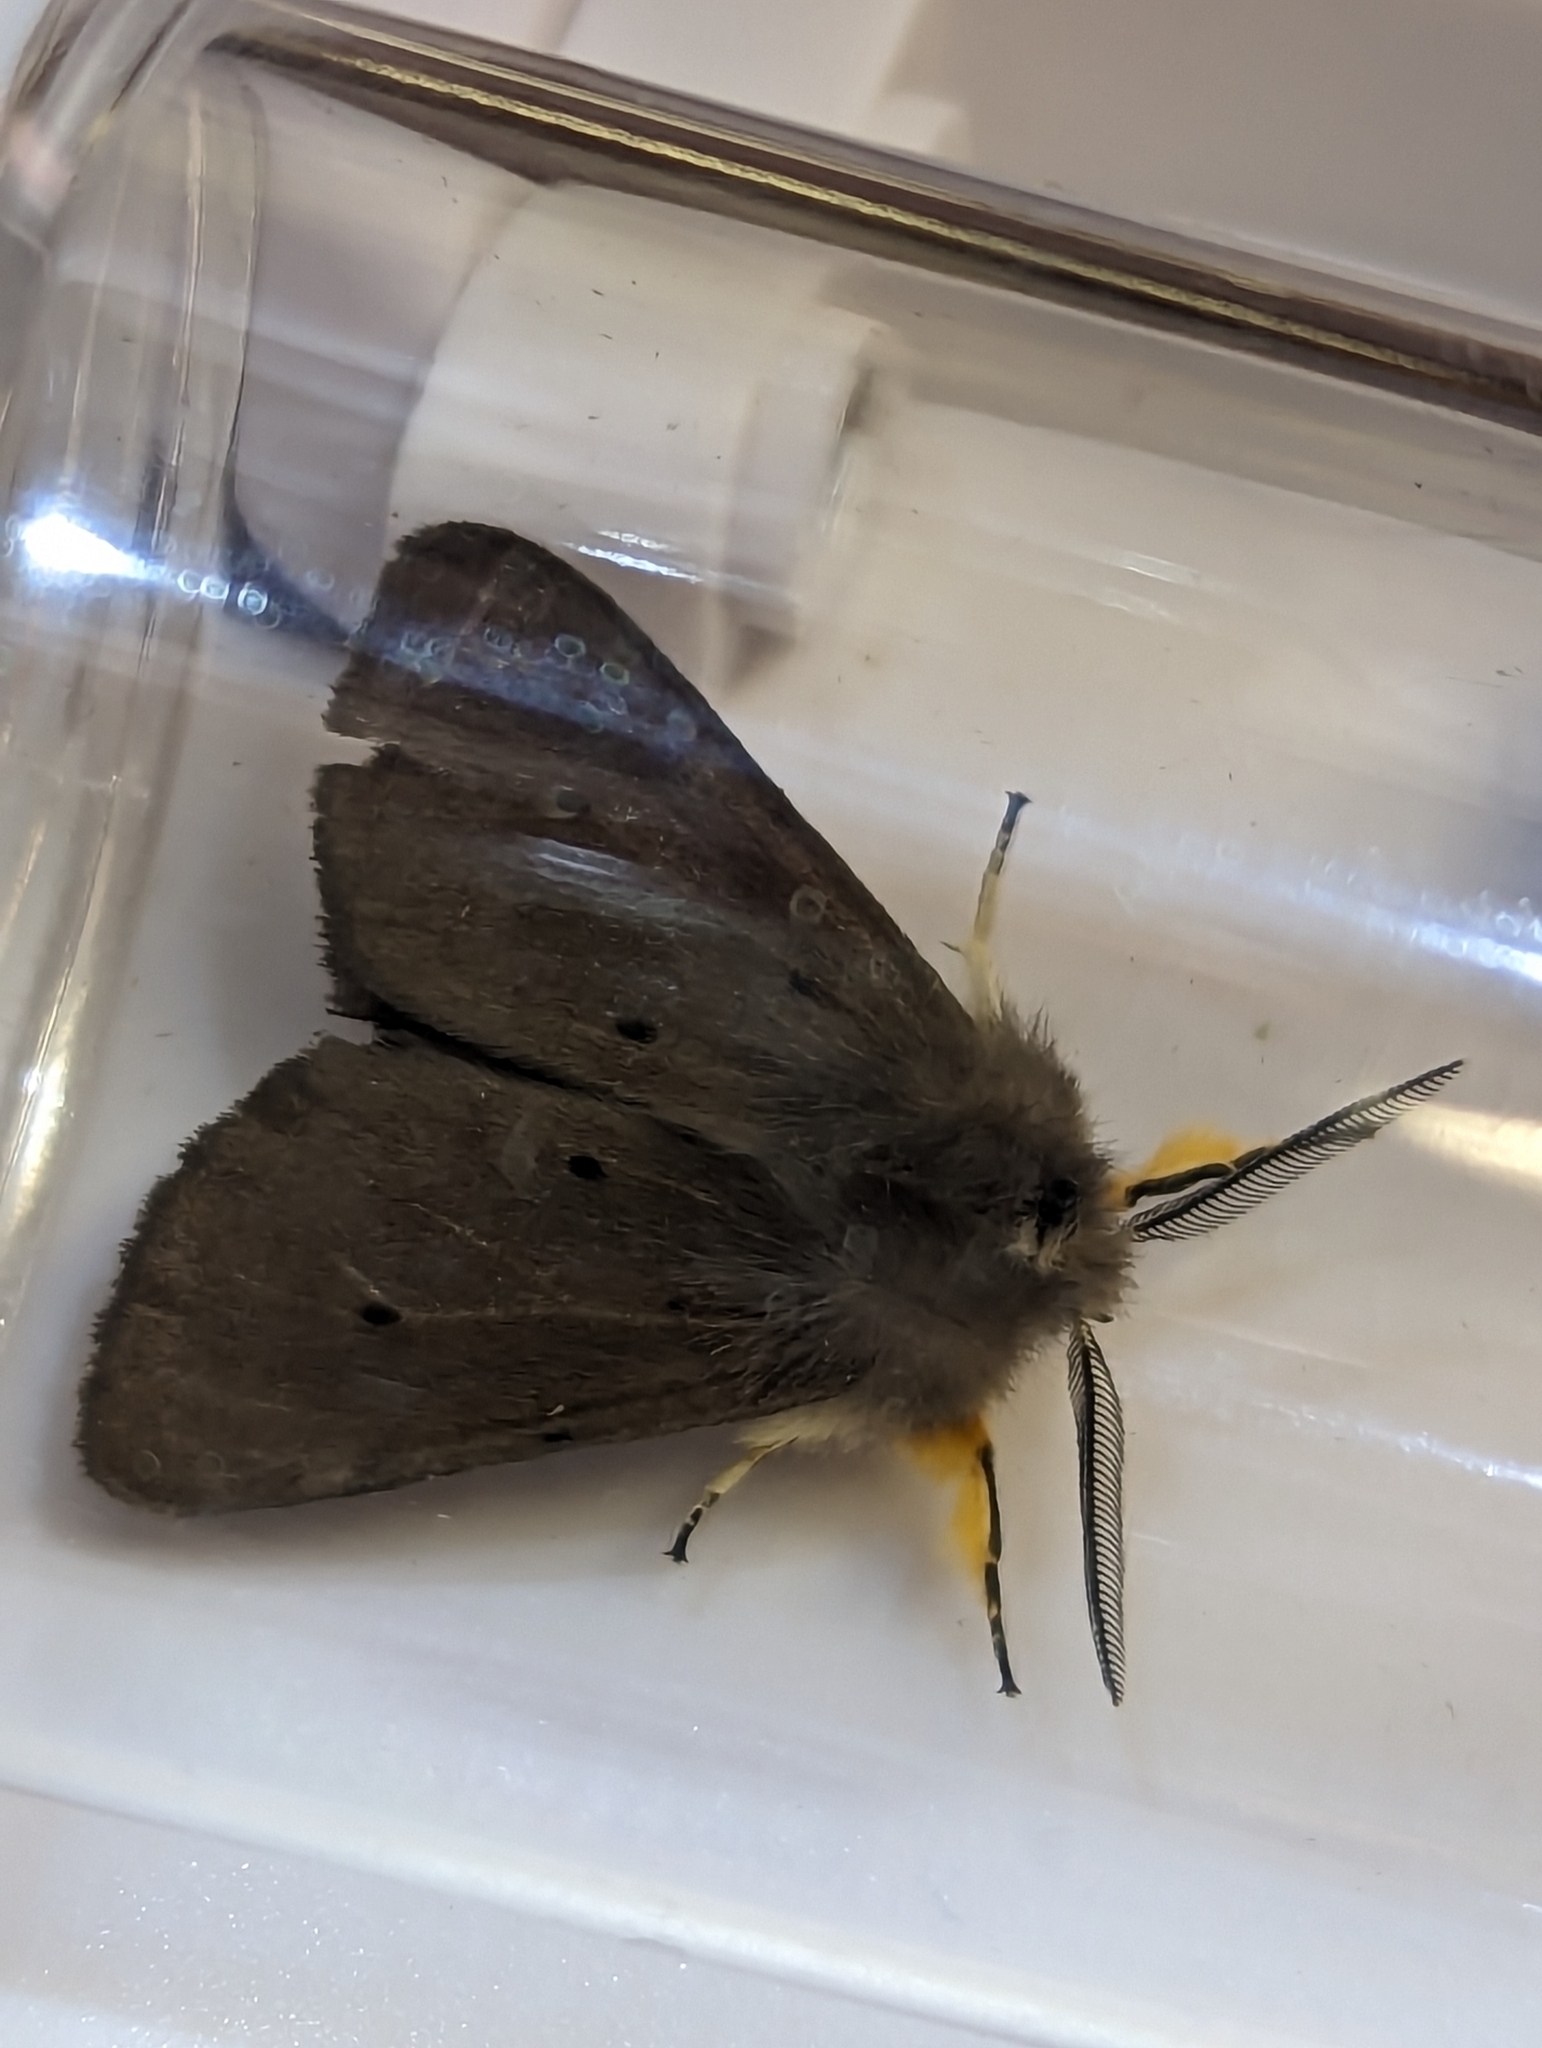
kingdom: Animalia
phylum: Arthropoda
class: Insecta
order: Lepidoptera
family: Erebidae
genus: Diaphora
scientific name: Diaphora mendica
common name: Muslin moth
